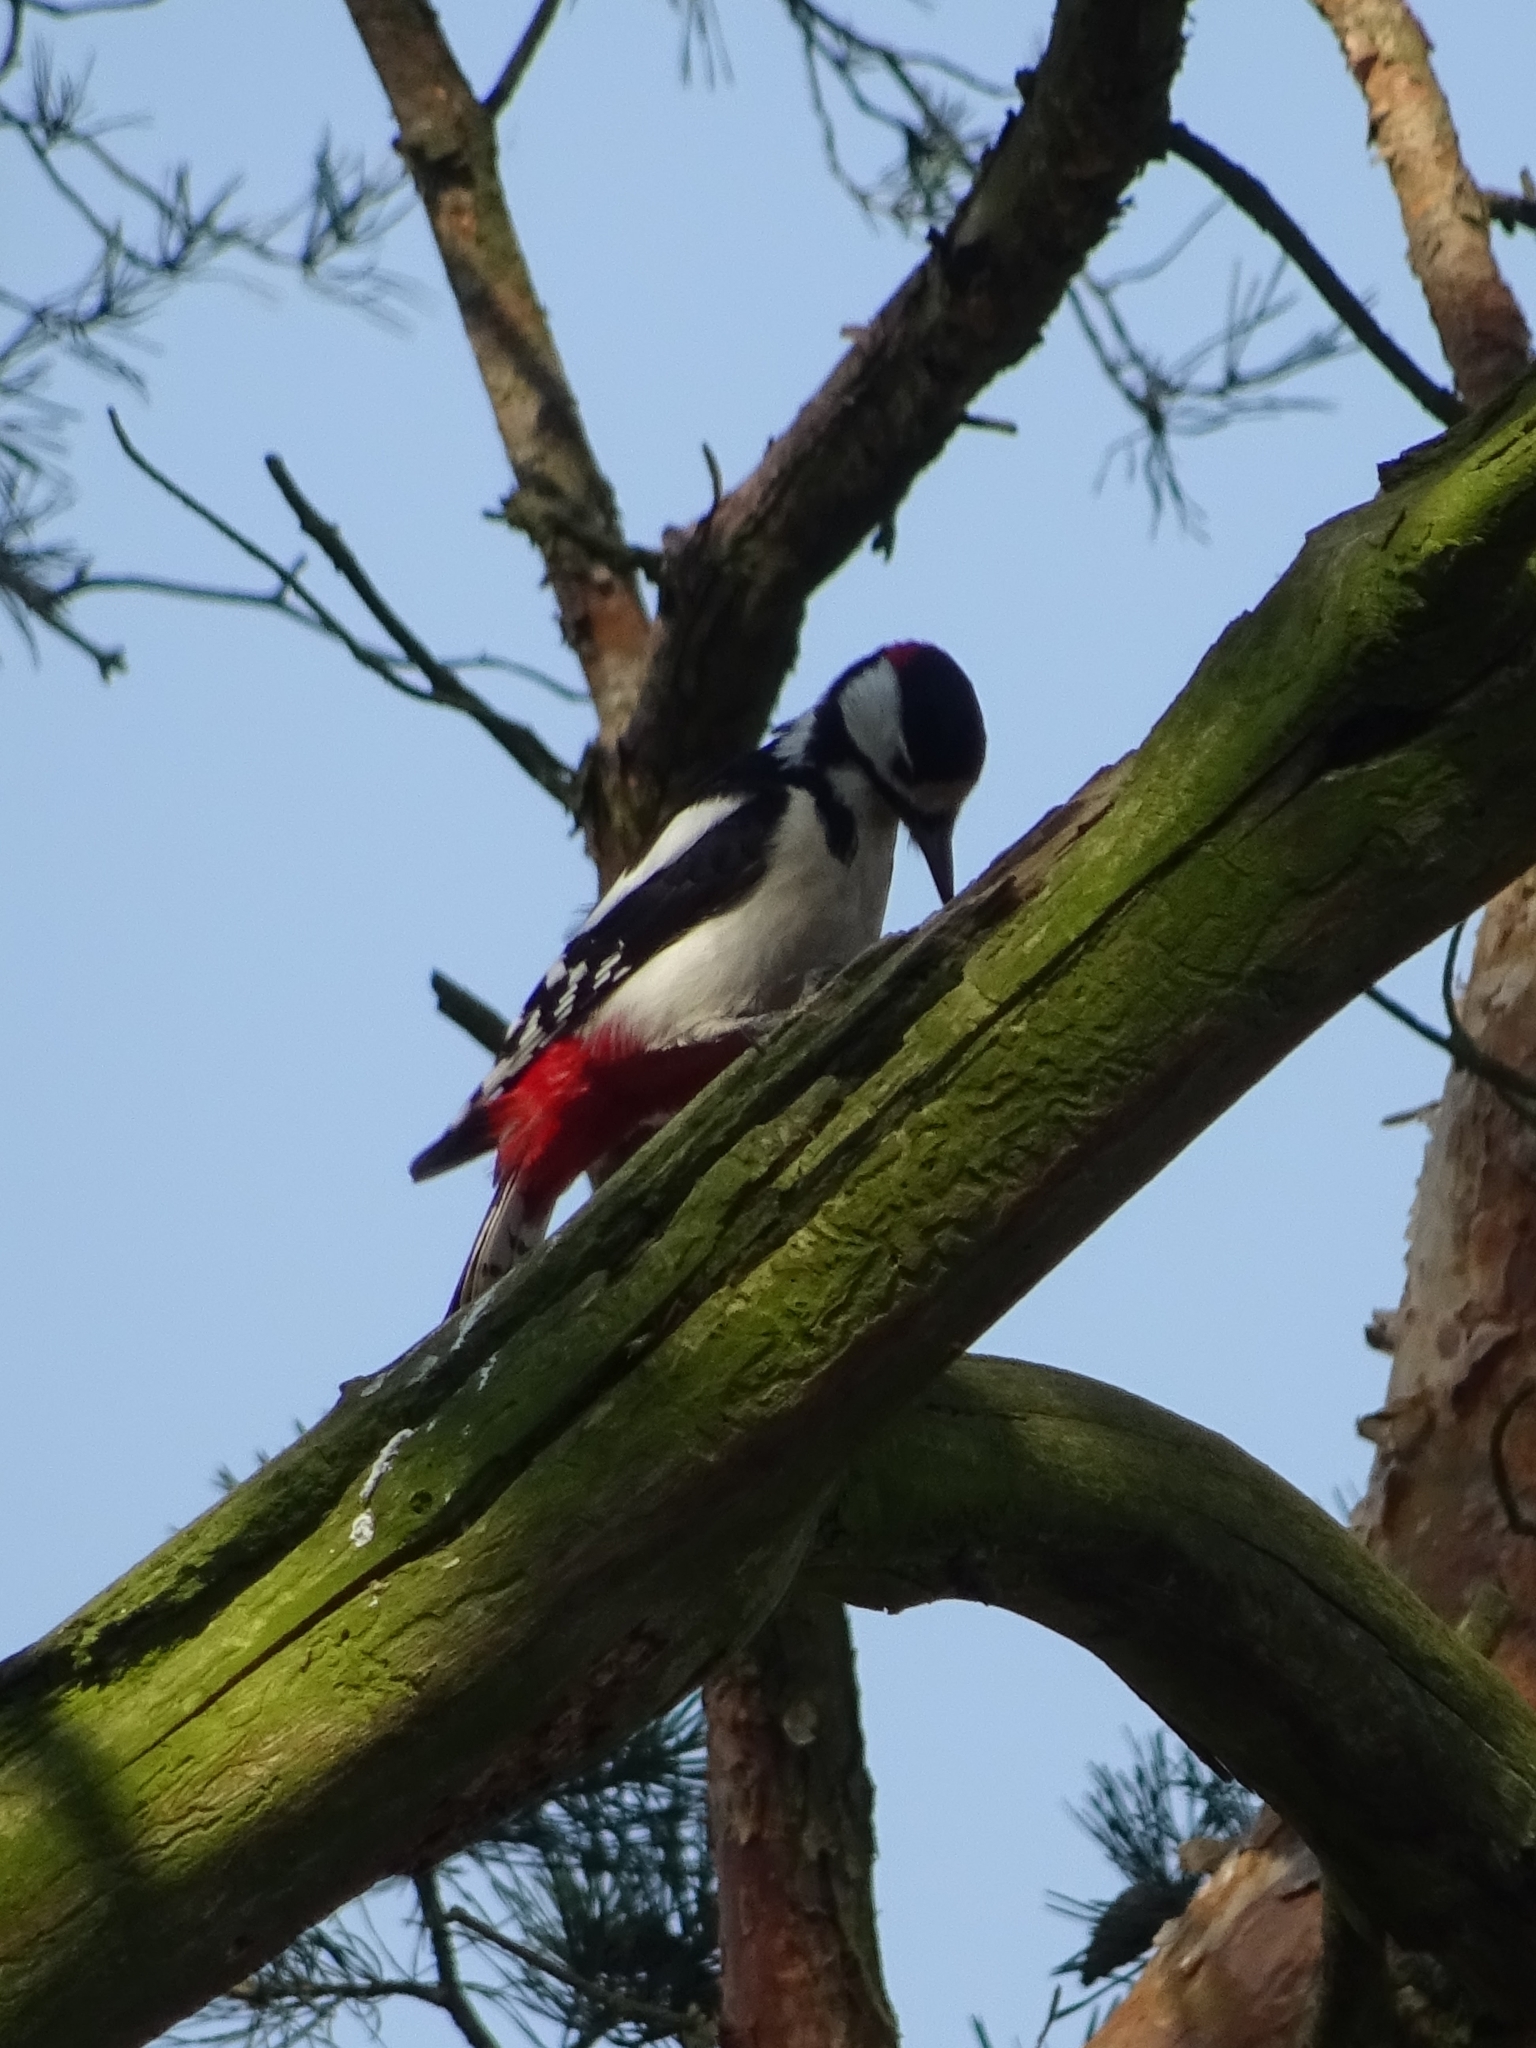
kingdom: Animalia
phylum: Chordata
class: Aves
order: Piciformes
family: Picidae
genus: Dendrocopos
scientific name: Dendrocopos major
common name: Great spotted woodpecker
